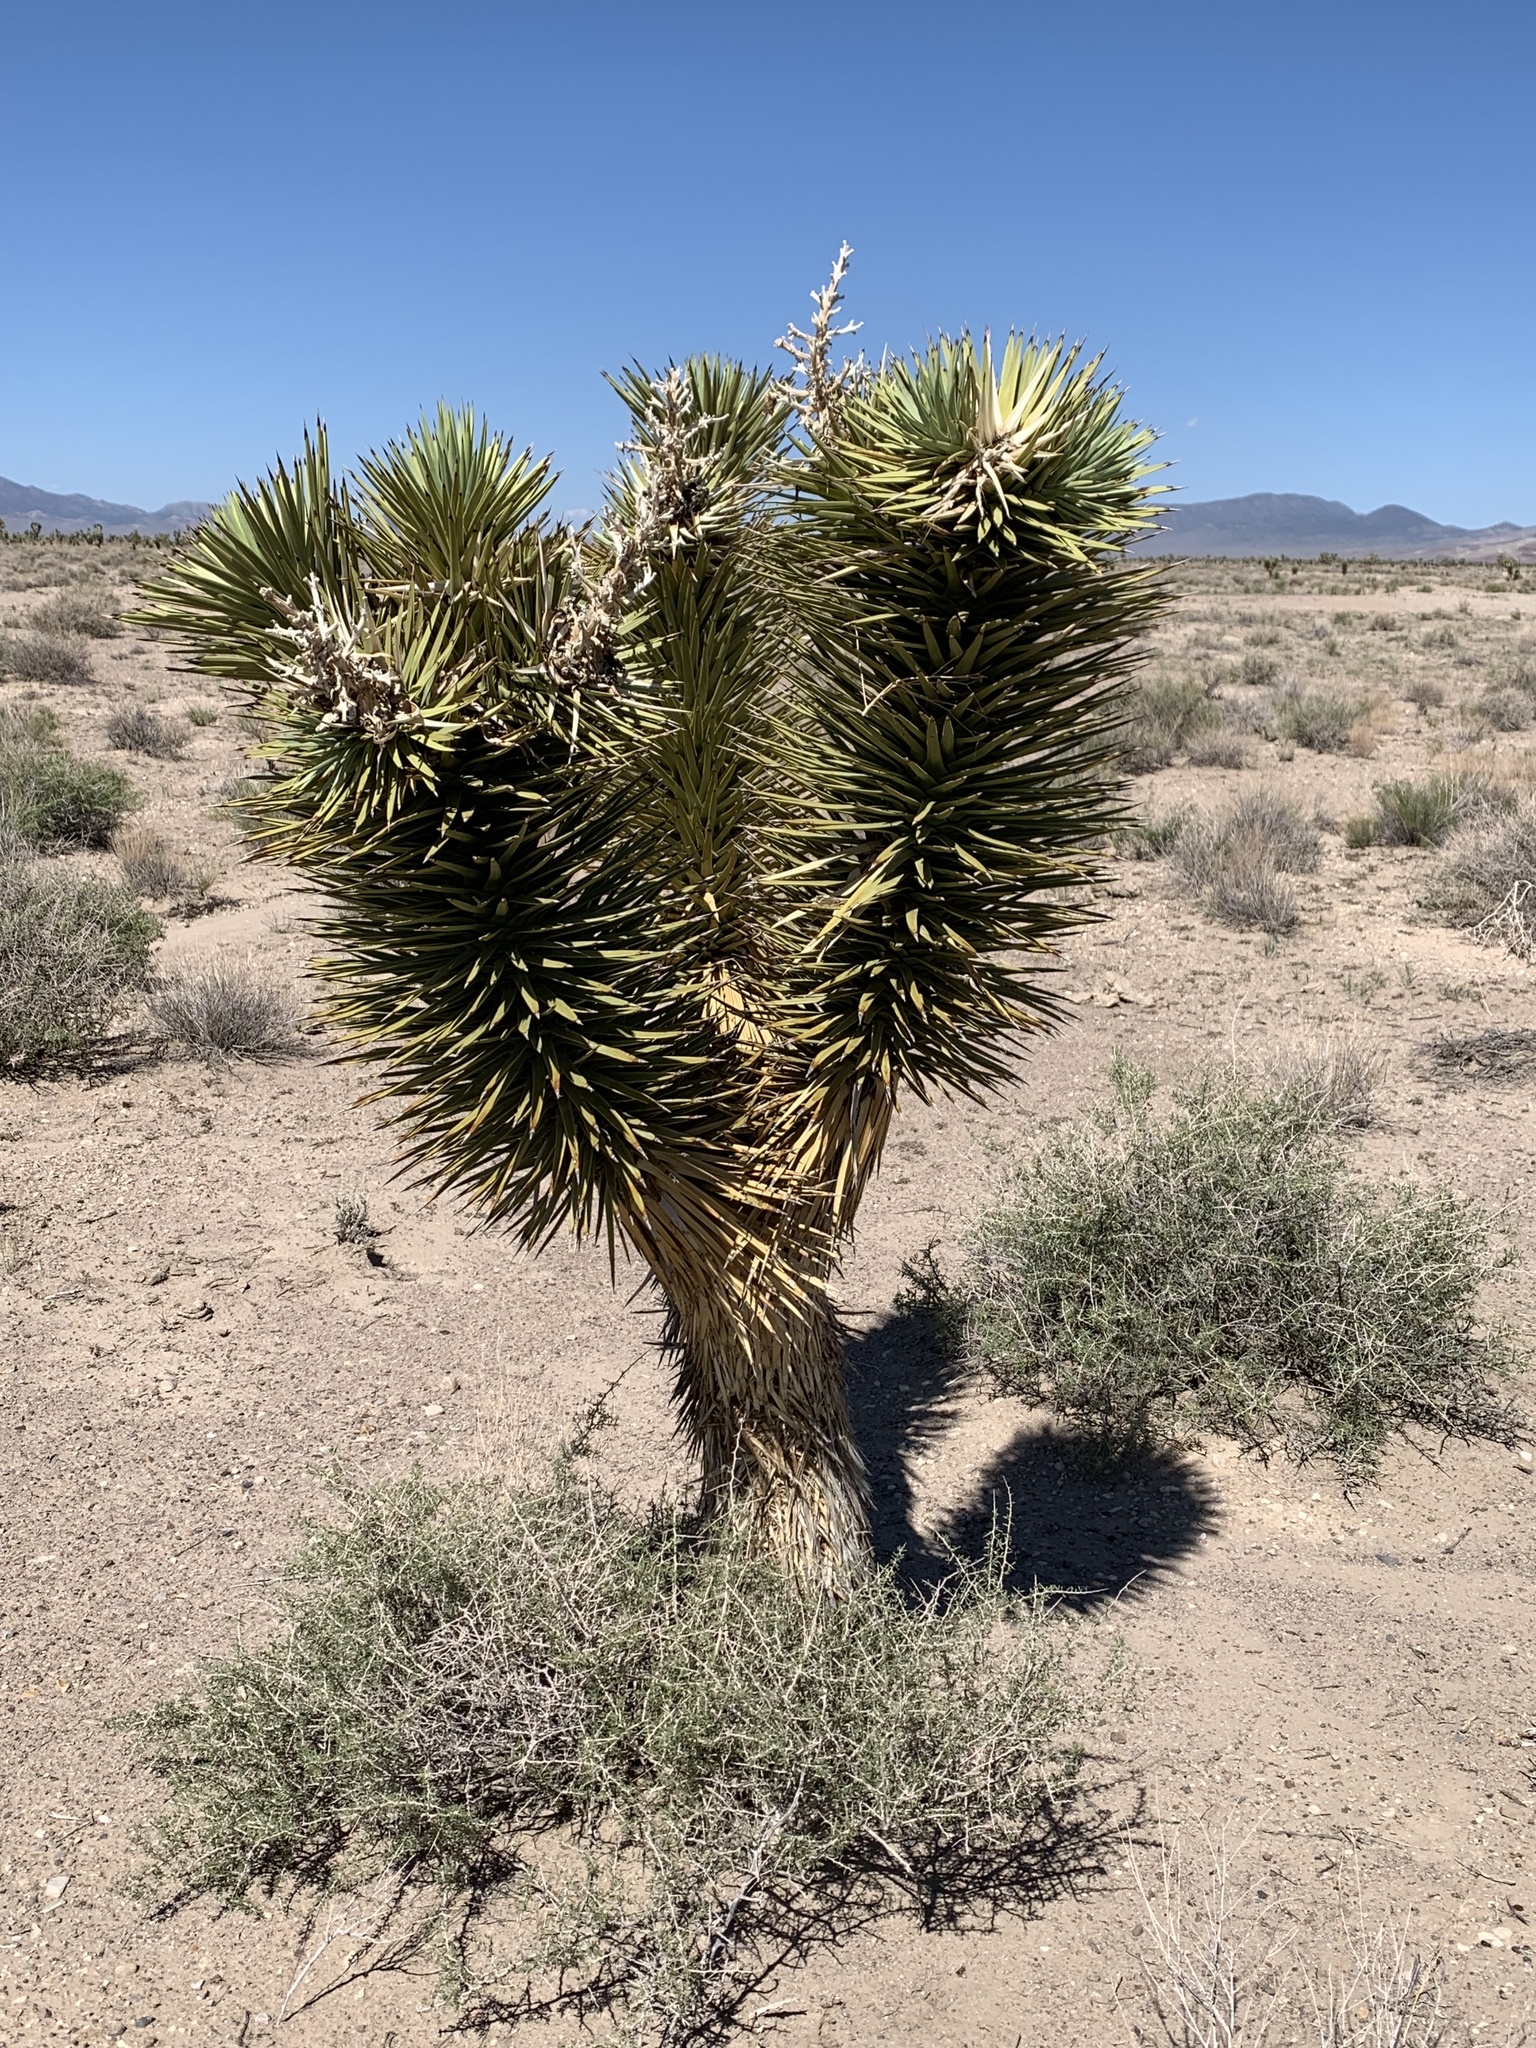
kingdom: Plantae
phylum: Tracheophyta
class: Liliopsida
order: Asparagales
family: Asparagaceae
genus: Yucca
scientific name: Yucca brevifolia
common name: Joshua tree
